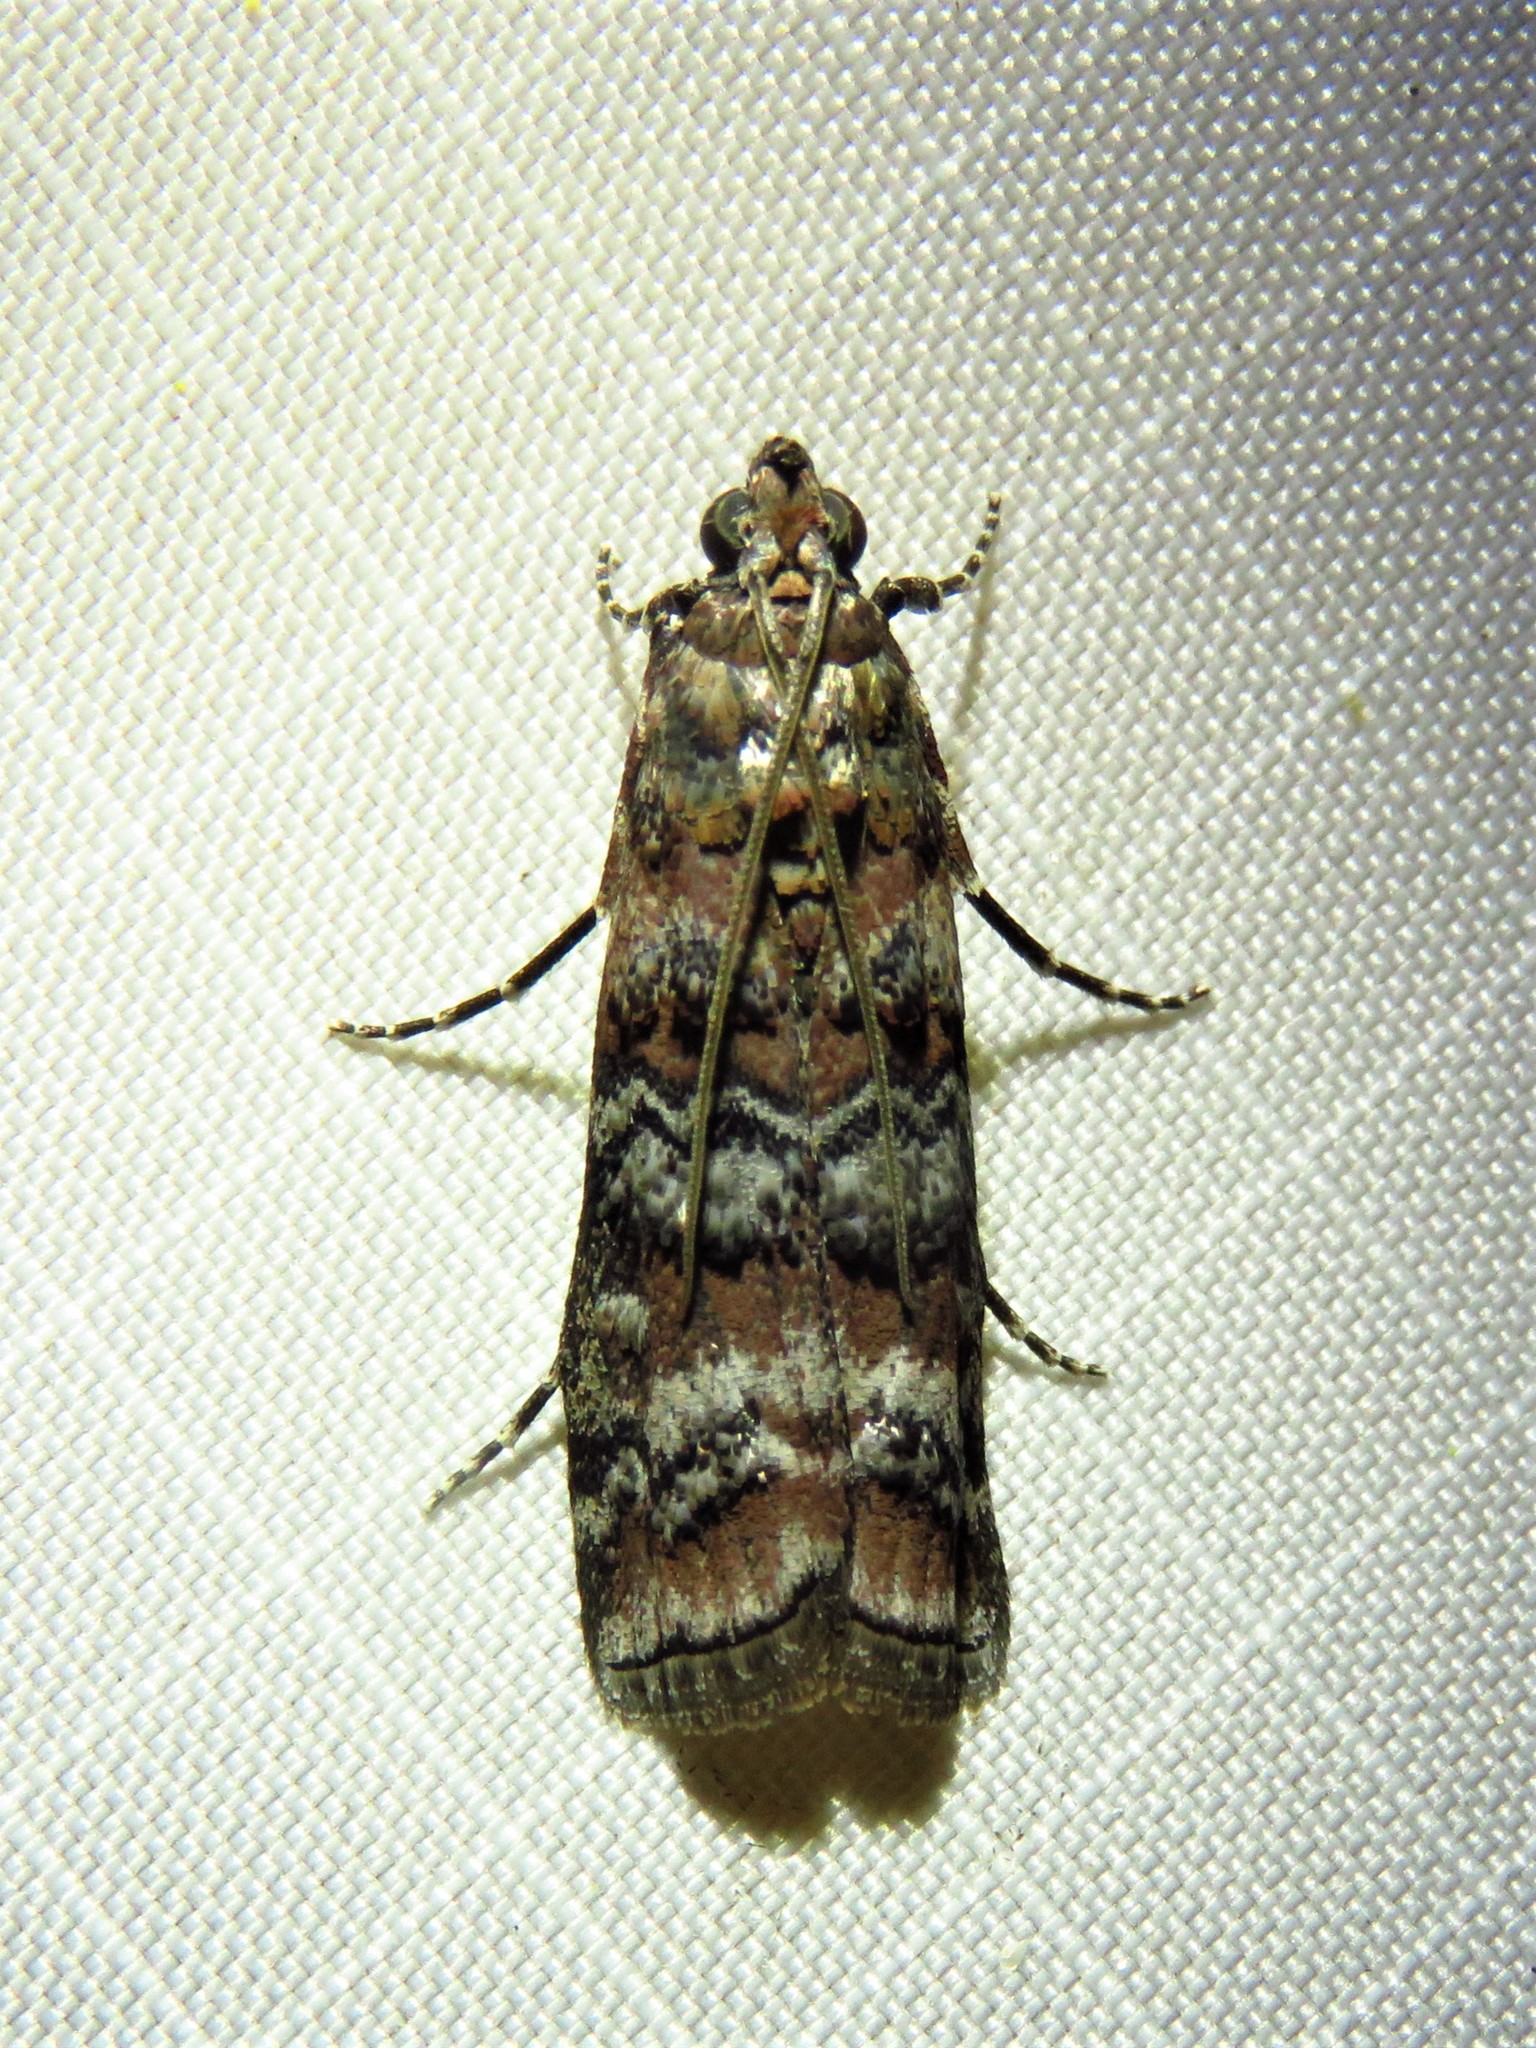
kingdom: Animalia
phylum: Arthropoda
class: Insecta
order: Lepidoptera
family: Pyralidae
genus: Dioryctria
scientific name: Dioryctria amatella
